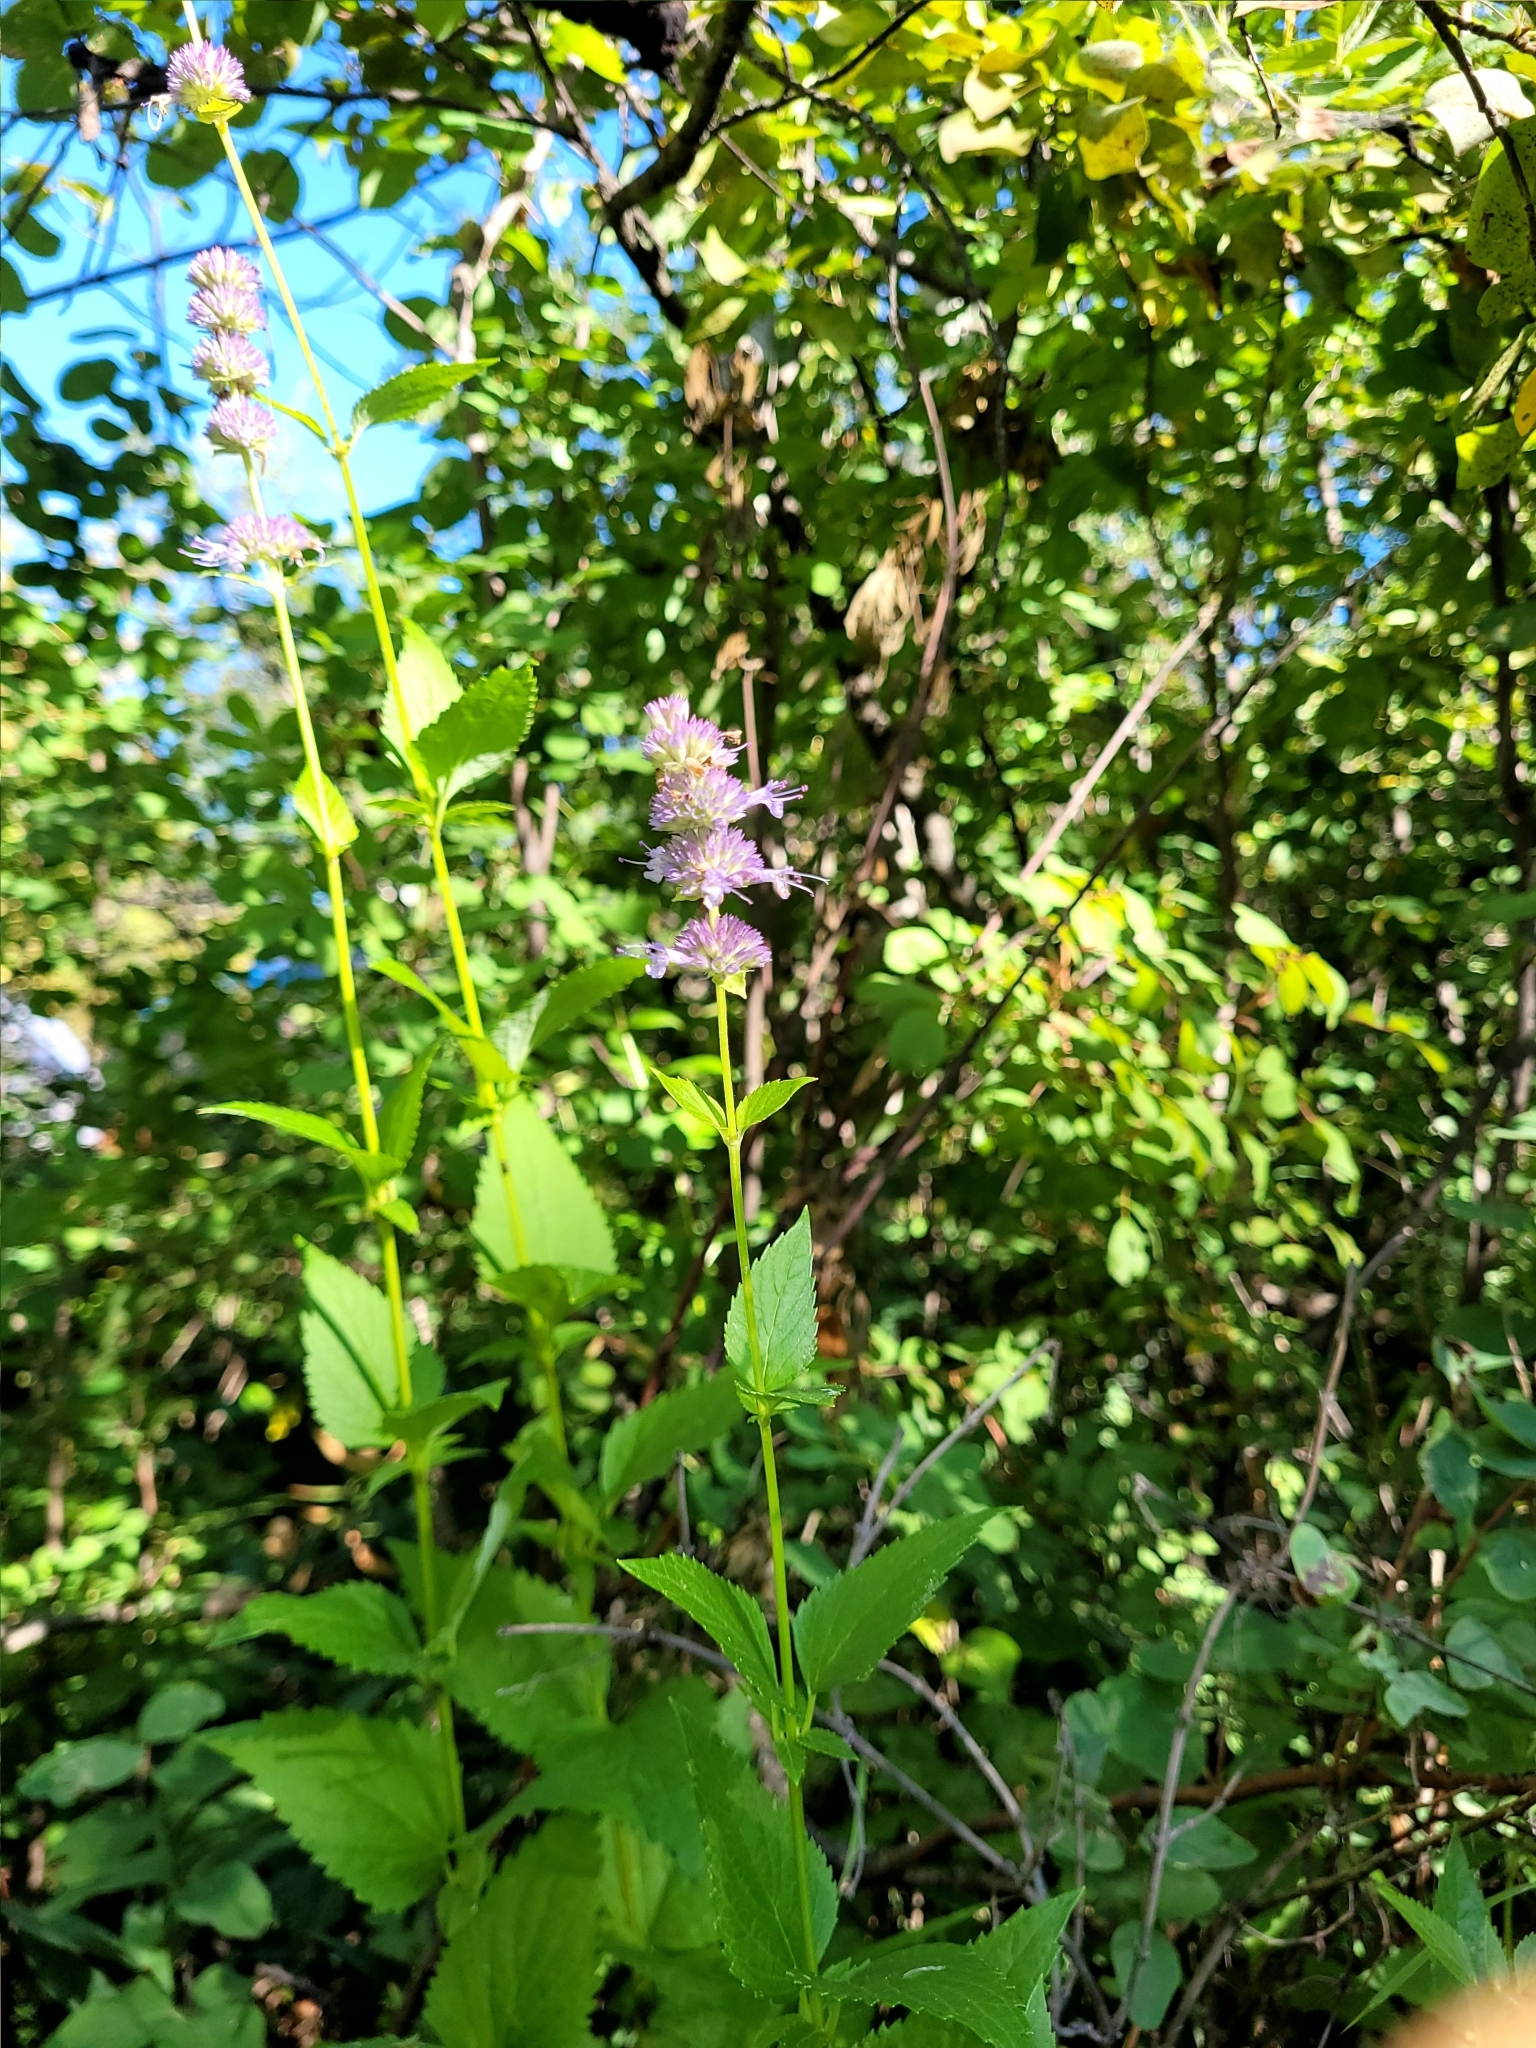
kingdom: Plantae
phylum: Tracheophyta
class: Magnoliopsida
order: Lamiales
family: Lamiaceae
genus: Agastache
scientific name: Agastache foeniculum
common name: Anise hyssop
